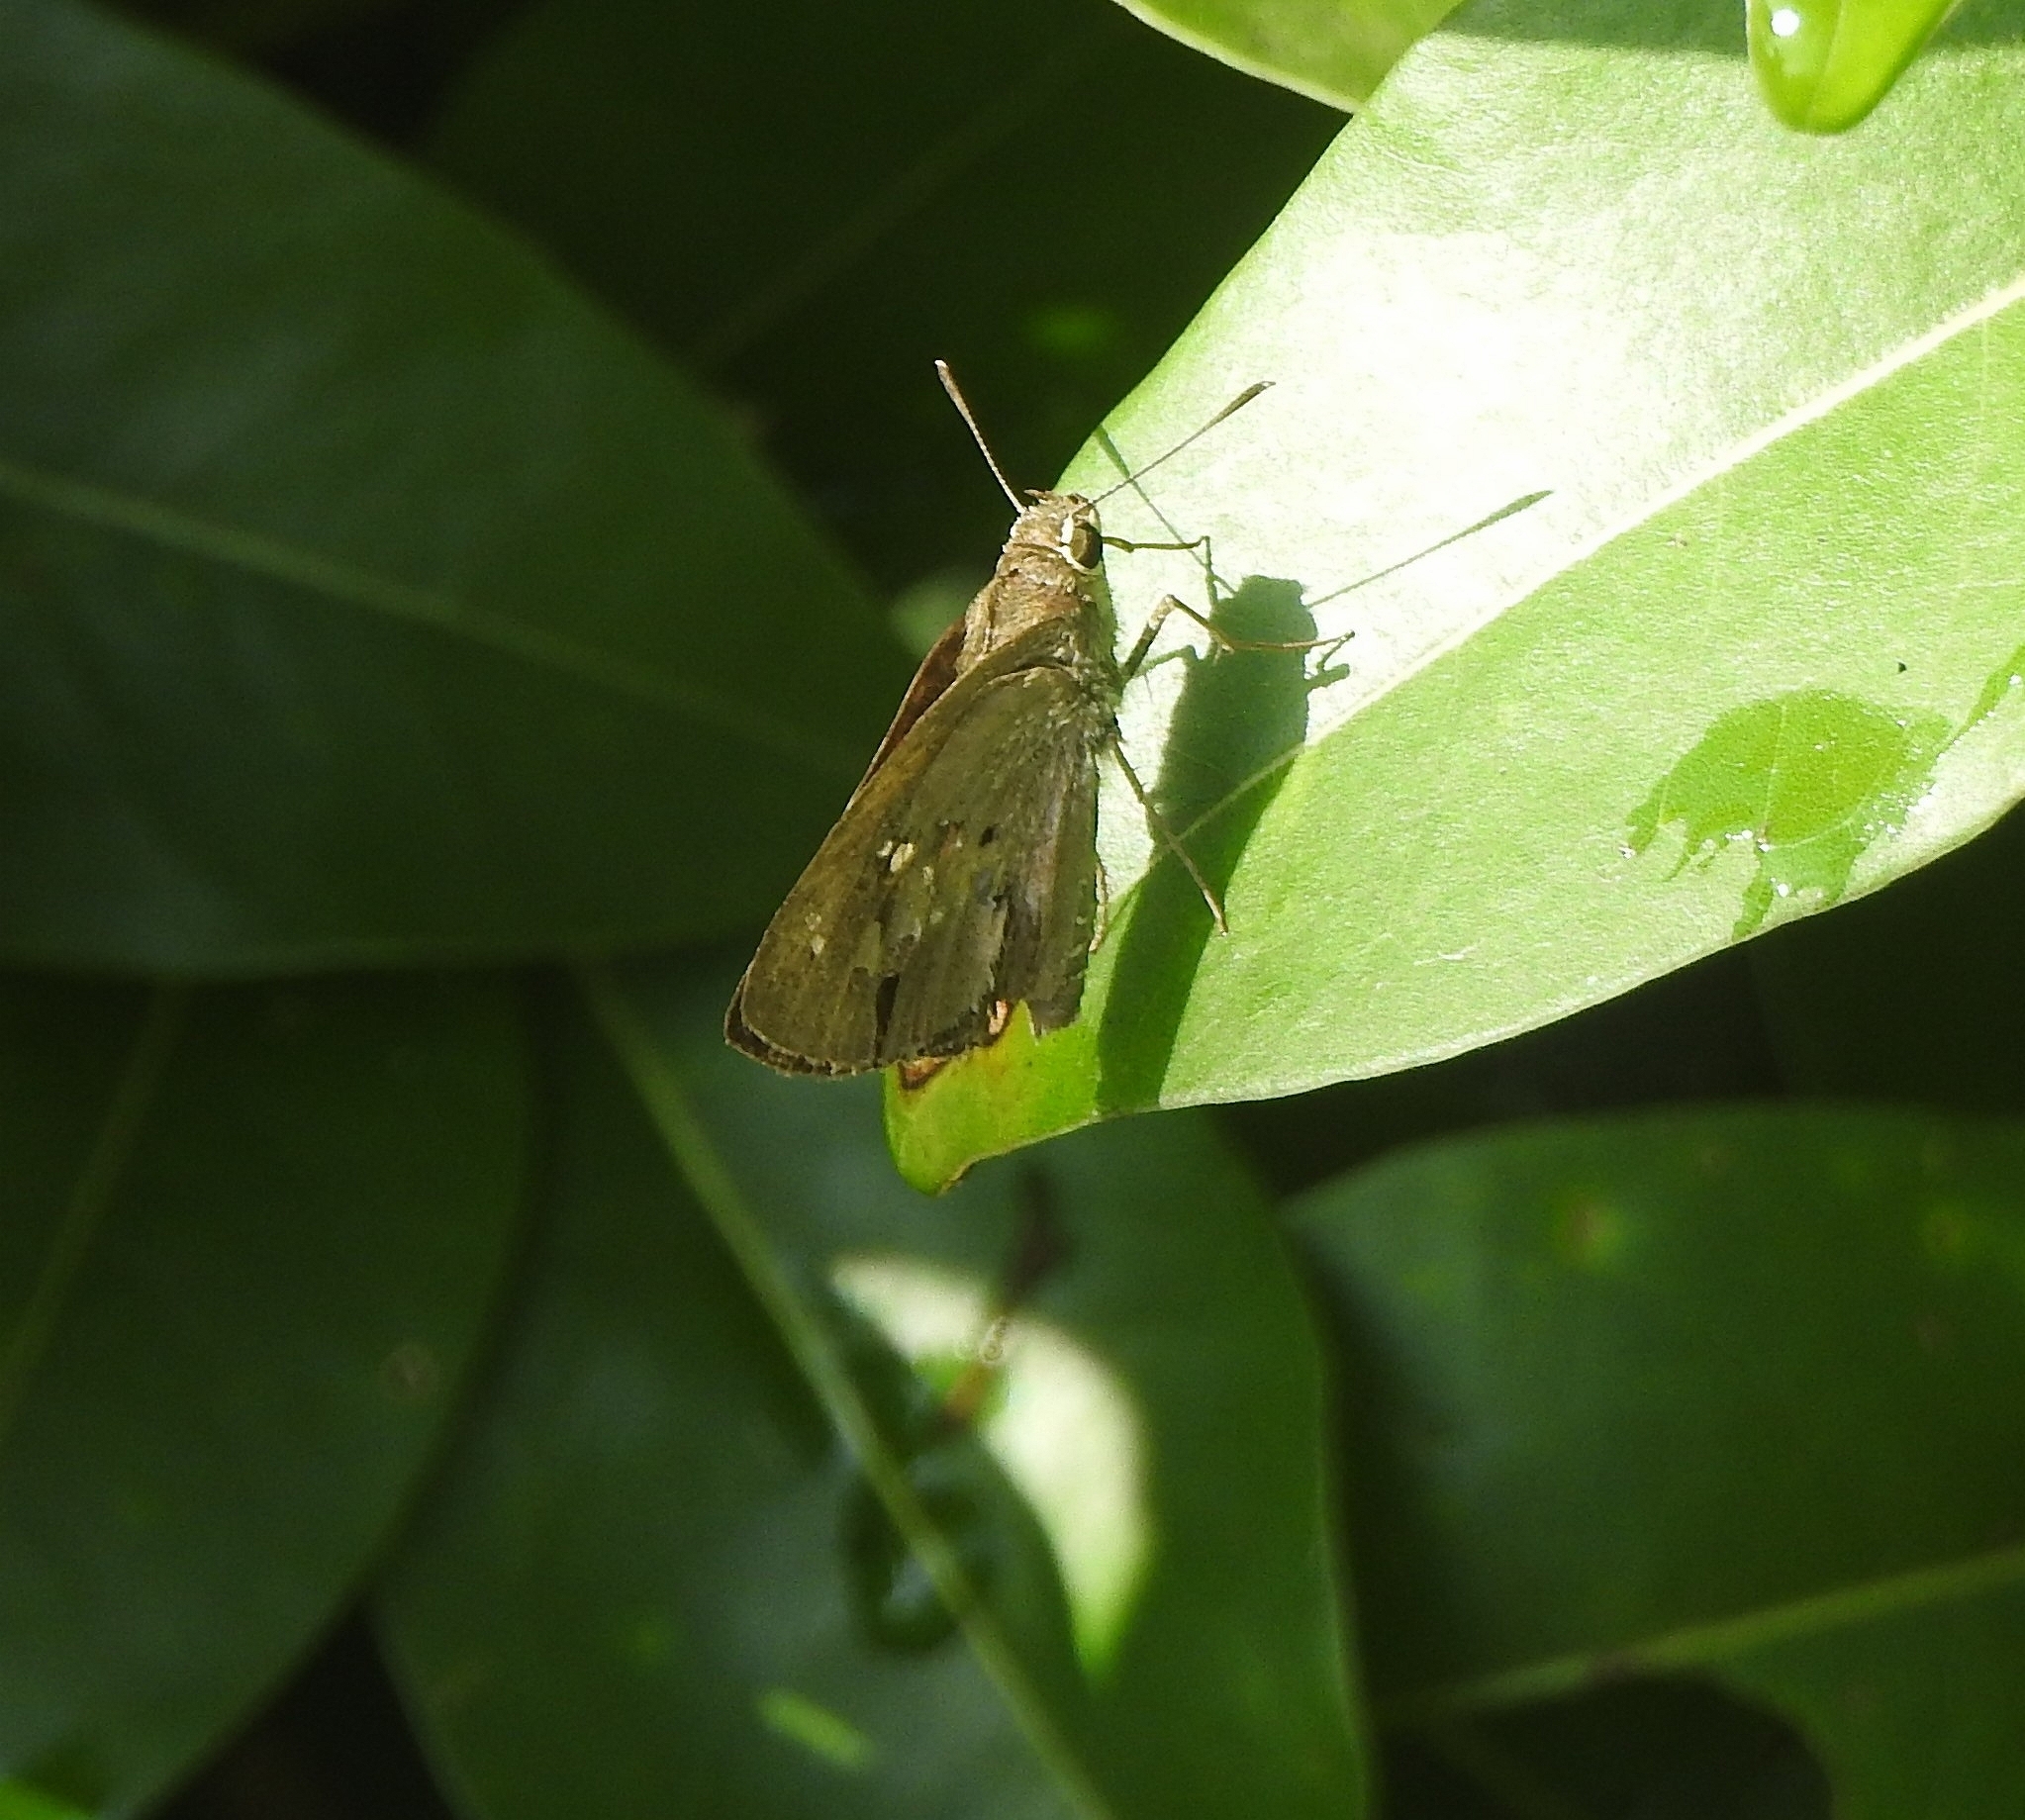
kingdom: Animalia
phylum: Arthropoda
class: Insecta
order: Lepidoptera
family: Hesperiidae
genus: Suastus
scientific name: Suastus gremius
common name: Indian palm bob
